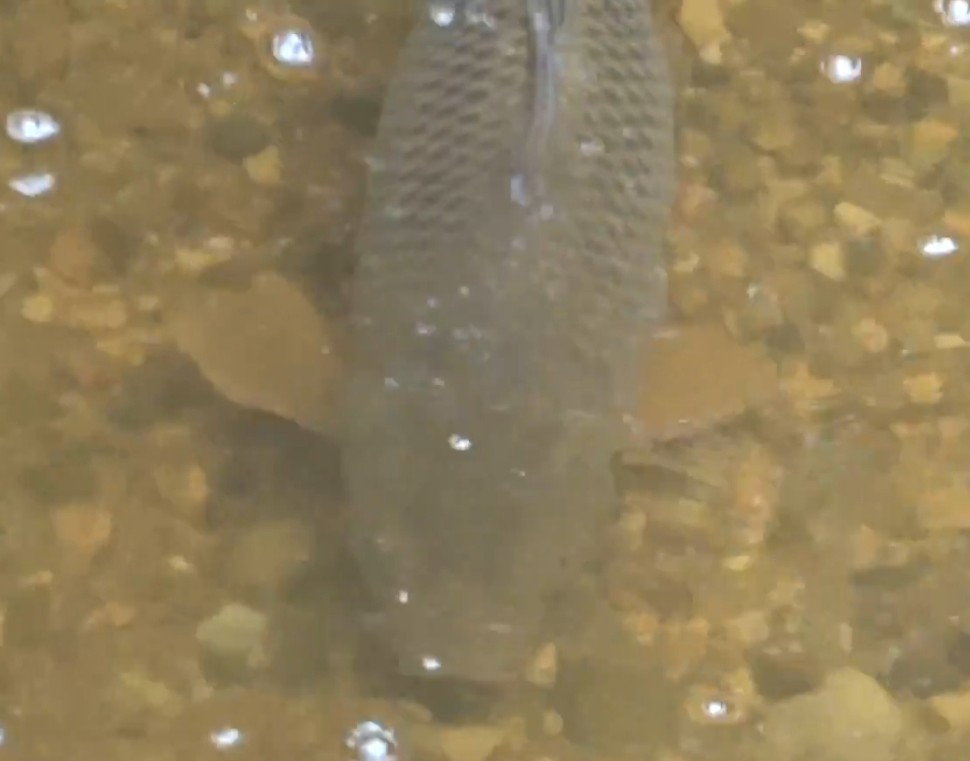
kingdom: Animalia
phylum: Chordata
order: Cypriniformes
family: Cyprinidae
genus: Cyprinus
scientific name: Cyprinus carpio
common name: Common carp
